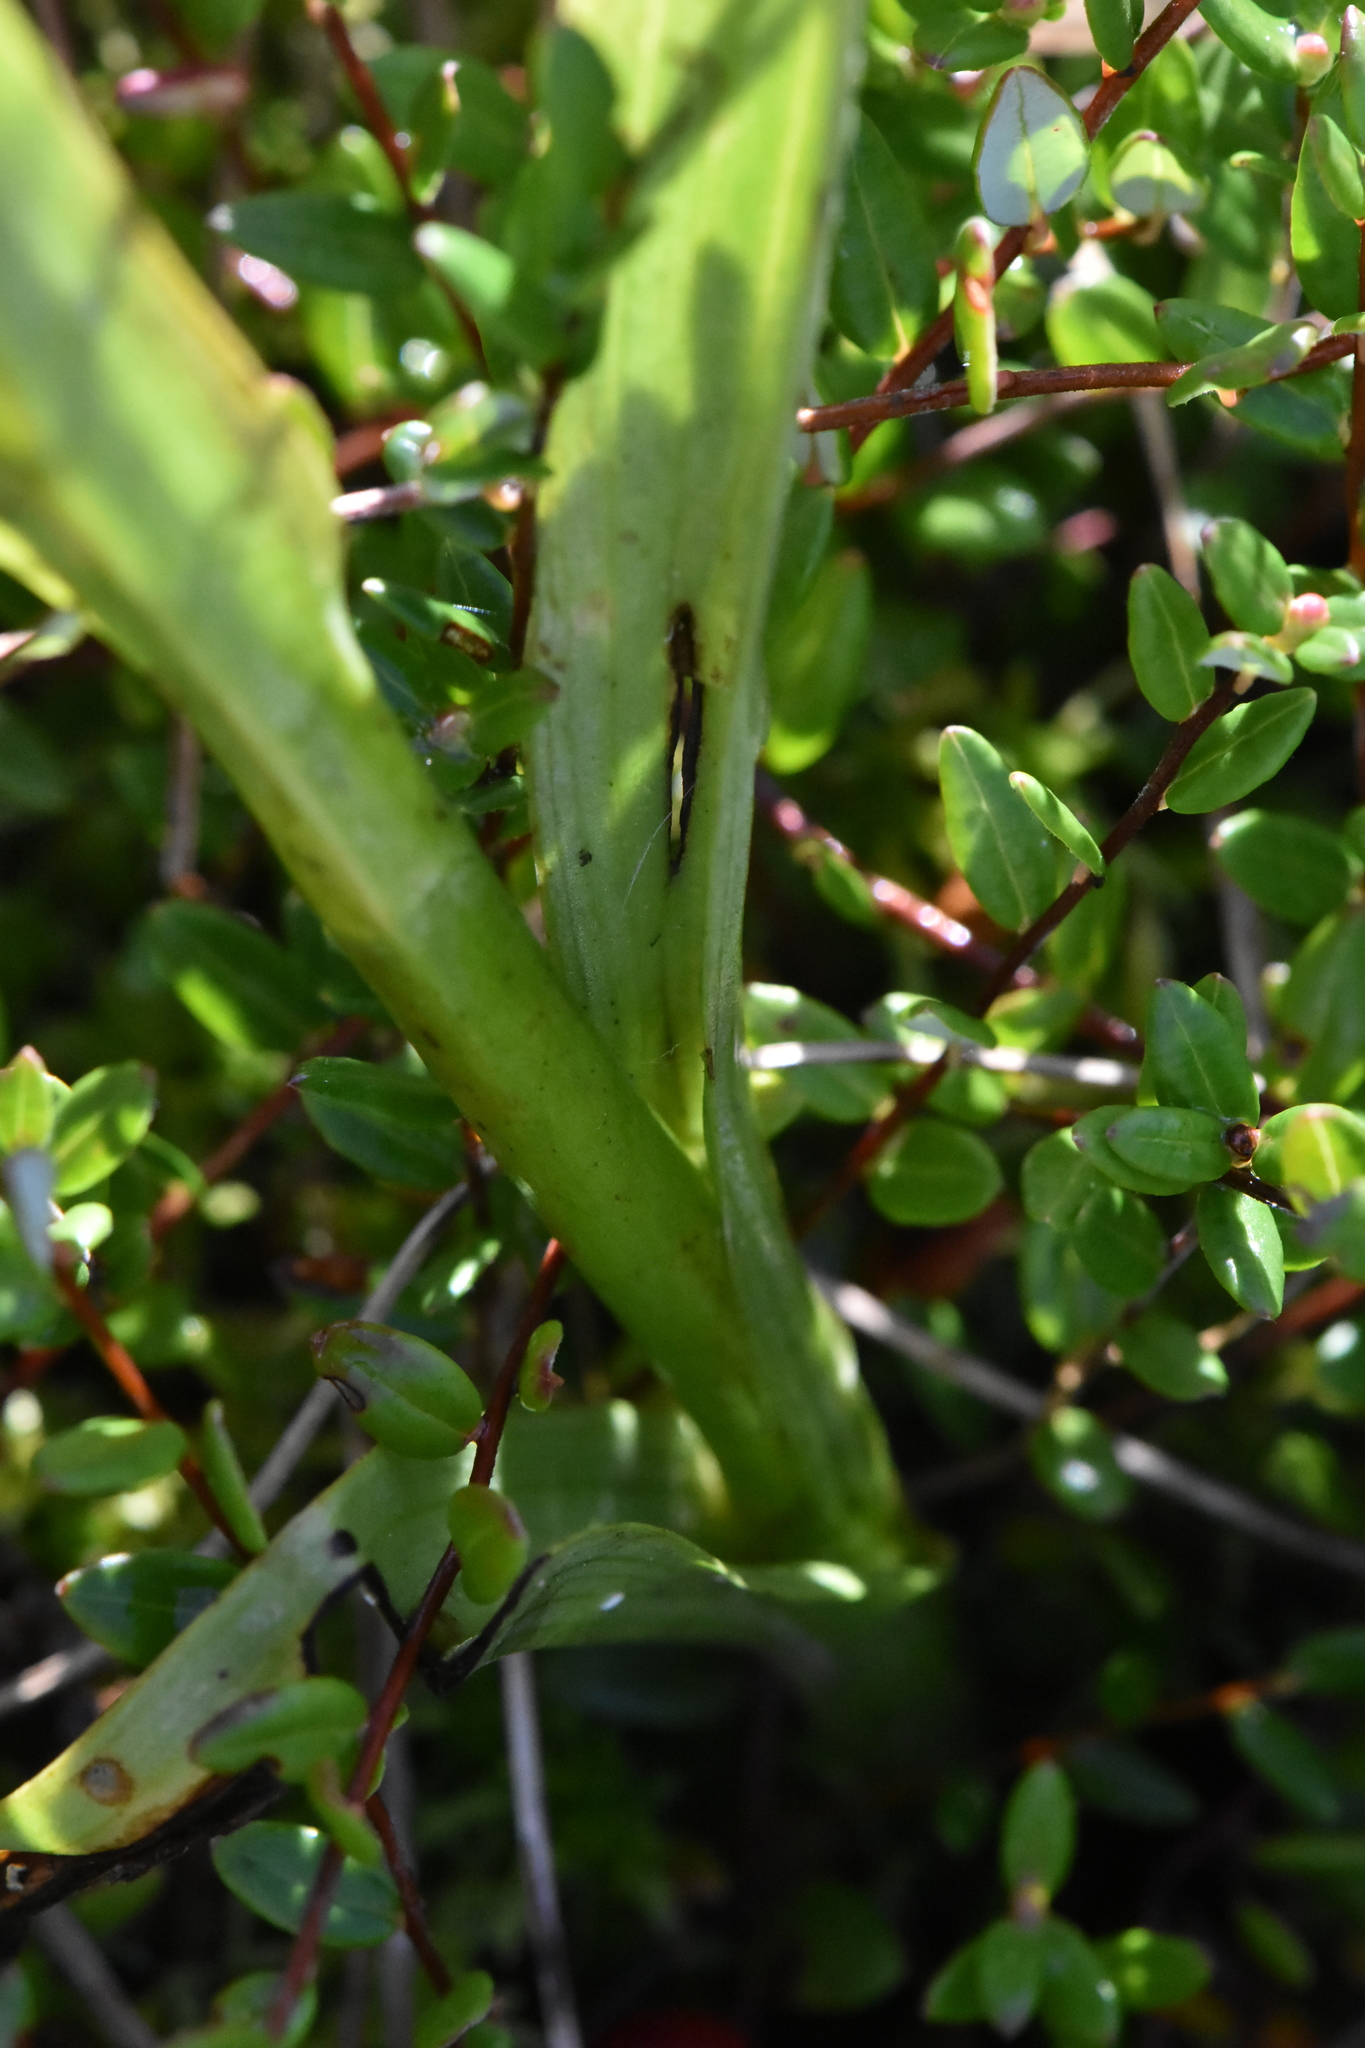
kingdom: Plantae
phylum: Tracheophyta
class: Liliopsida
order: Asparagales
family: Orchidaceae
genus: Dactylorhiza
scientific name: Dactylorhiza incarnata
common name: Early marsh-orchid
